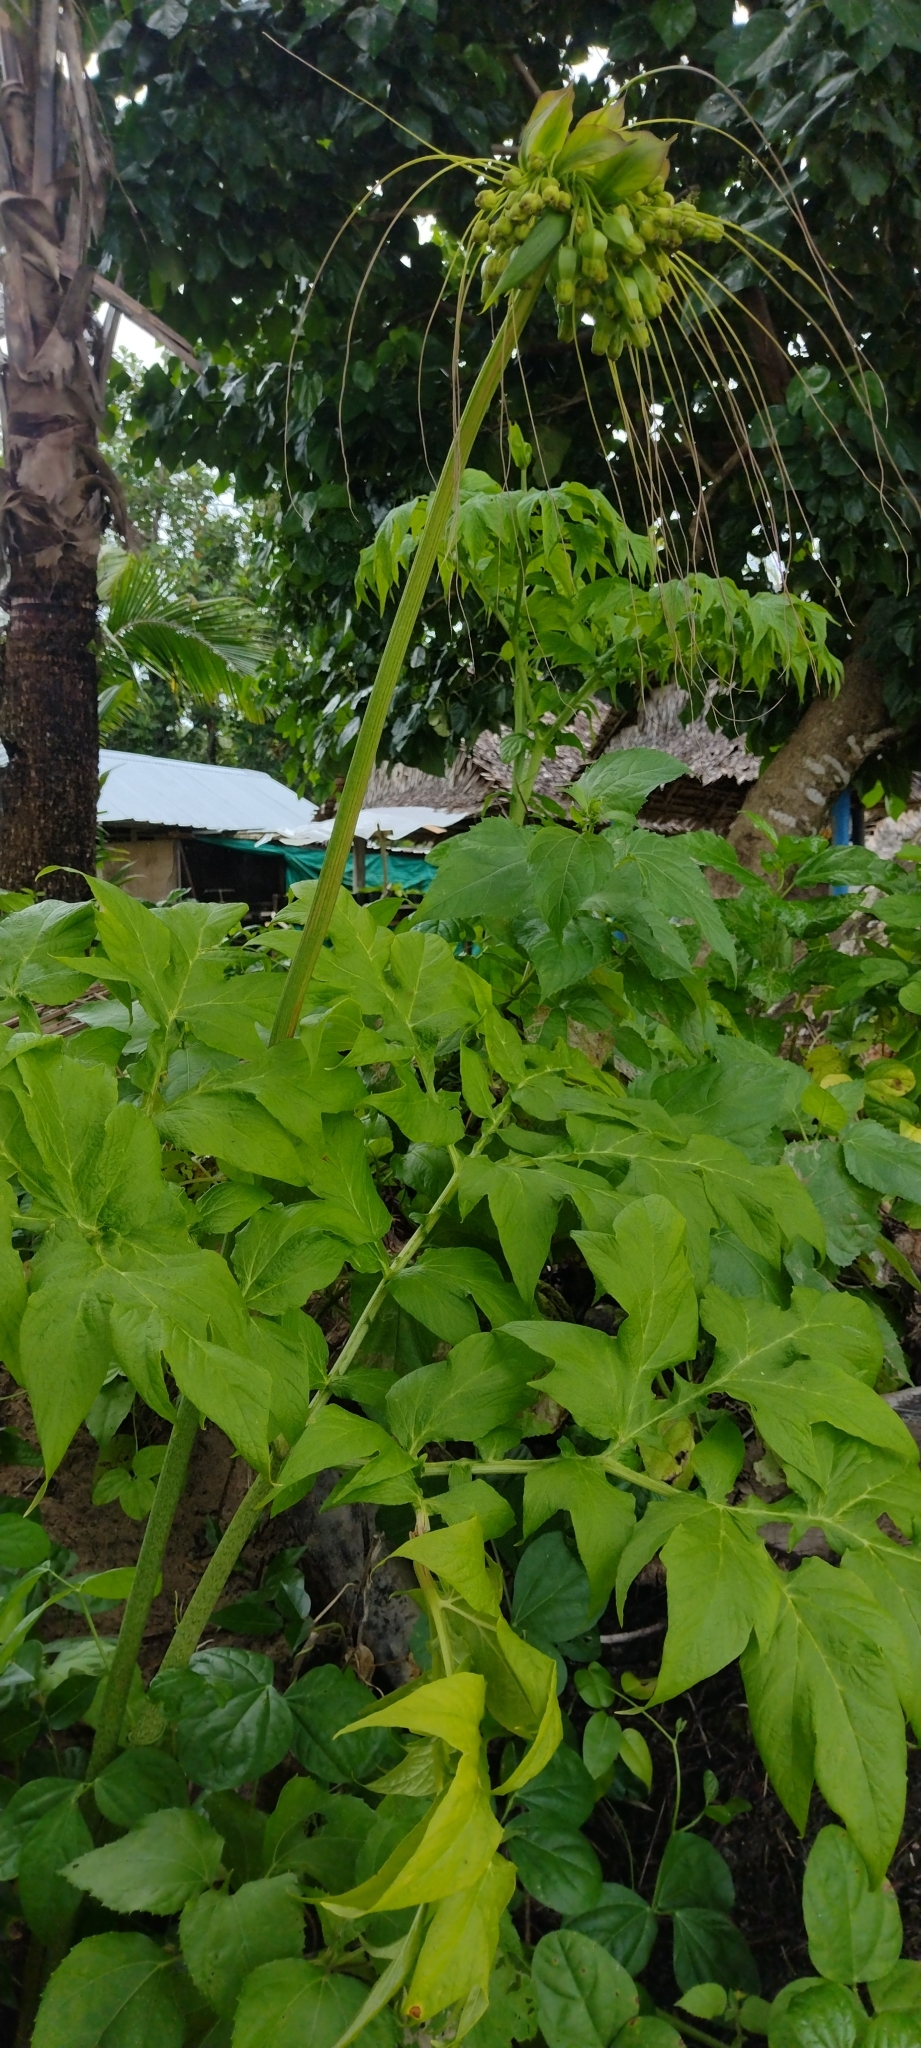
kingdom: Plantae
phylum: Tracheophyta
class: Liliopsida
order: Dioscoreales
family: Dioscoreaceae
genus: Tacca
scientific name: Tacca leontopetaloides
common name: Arrowroot
